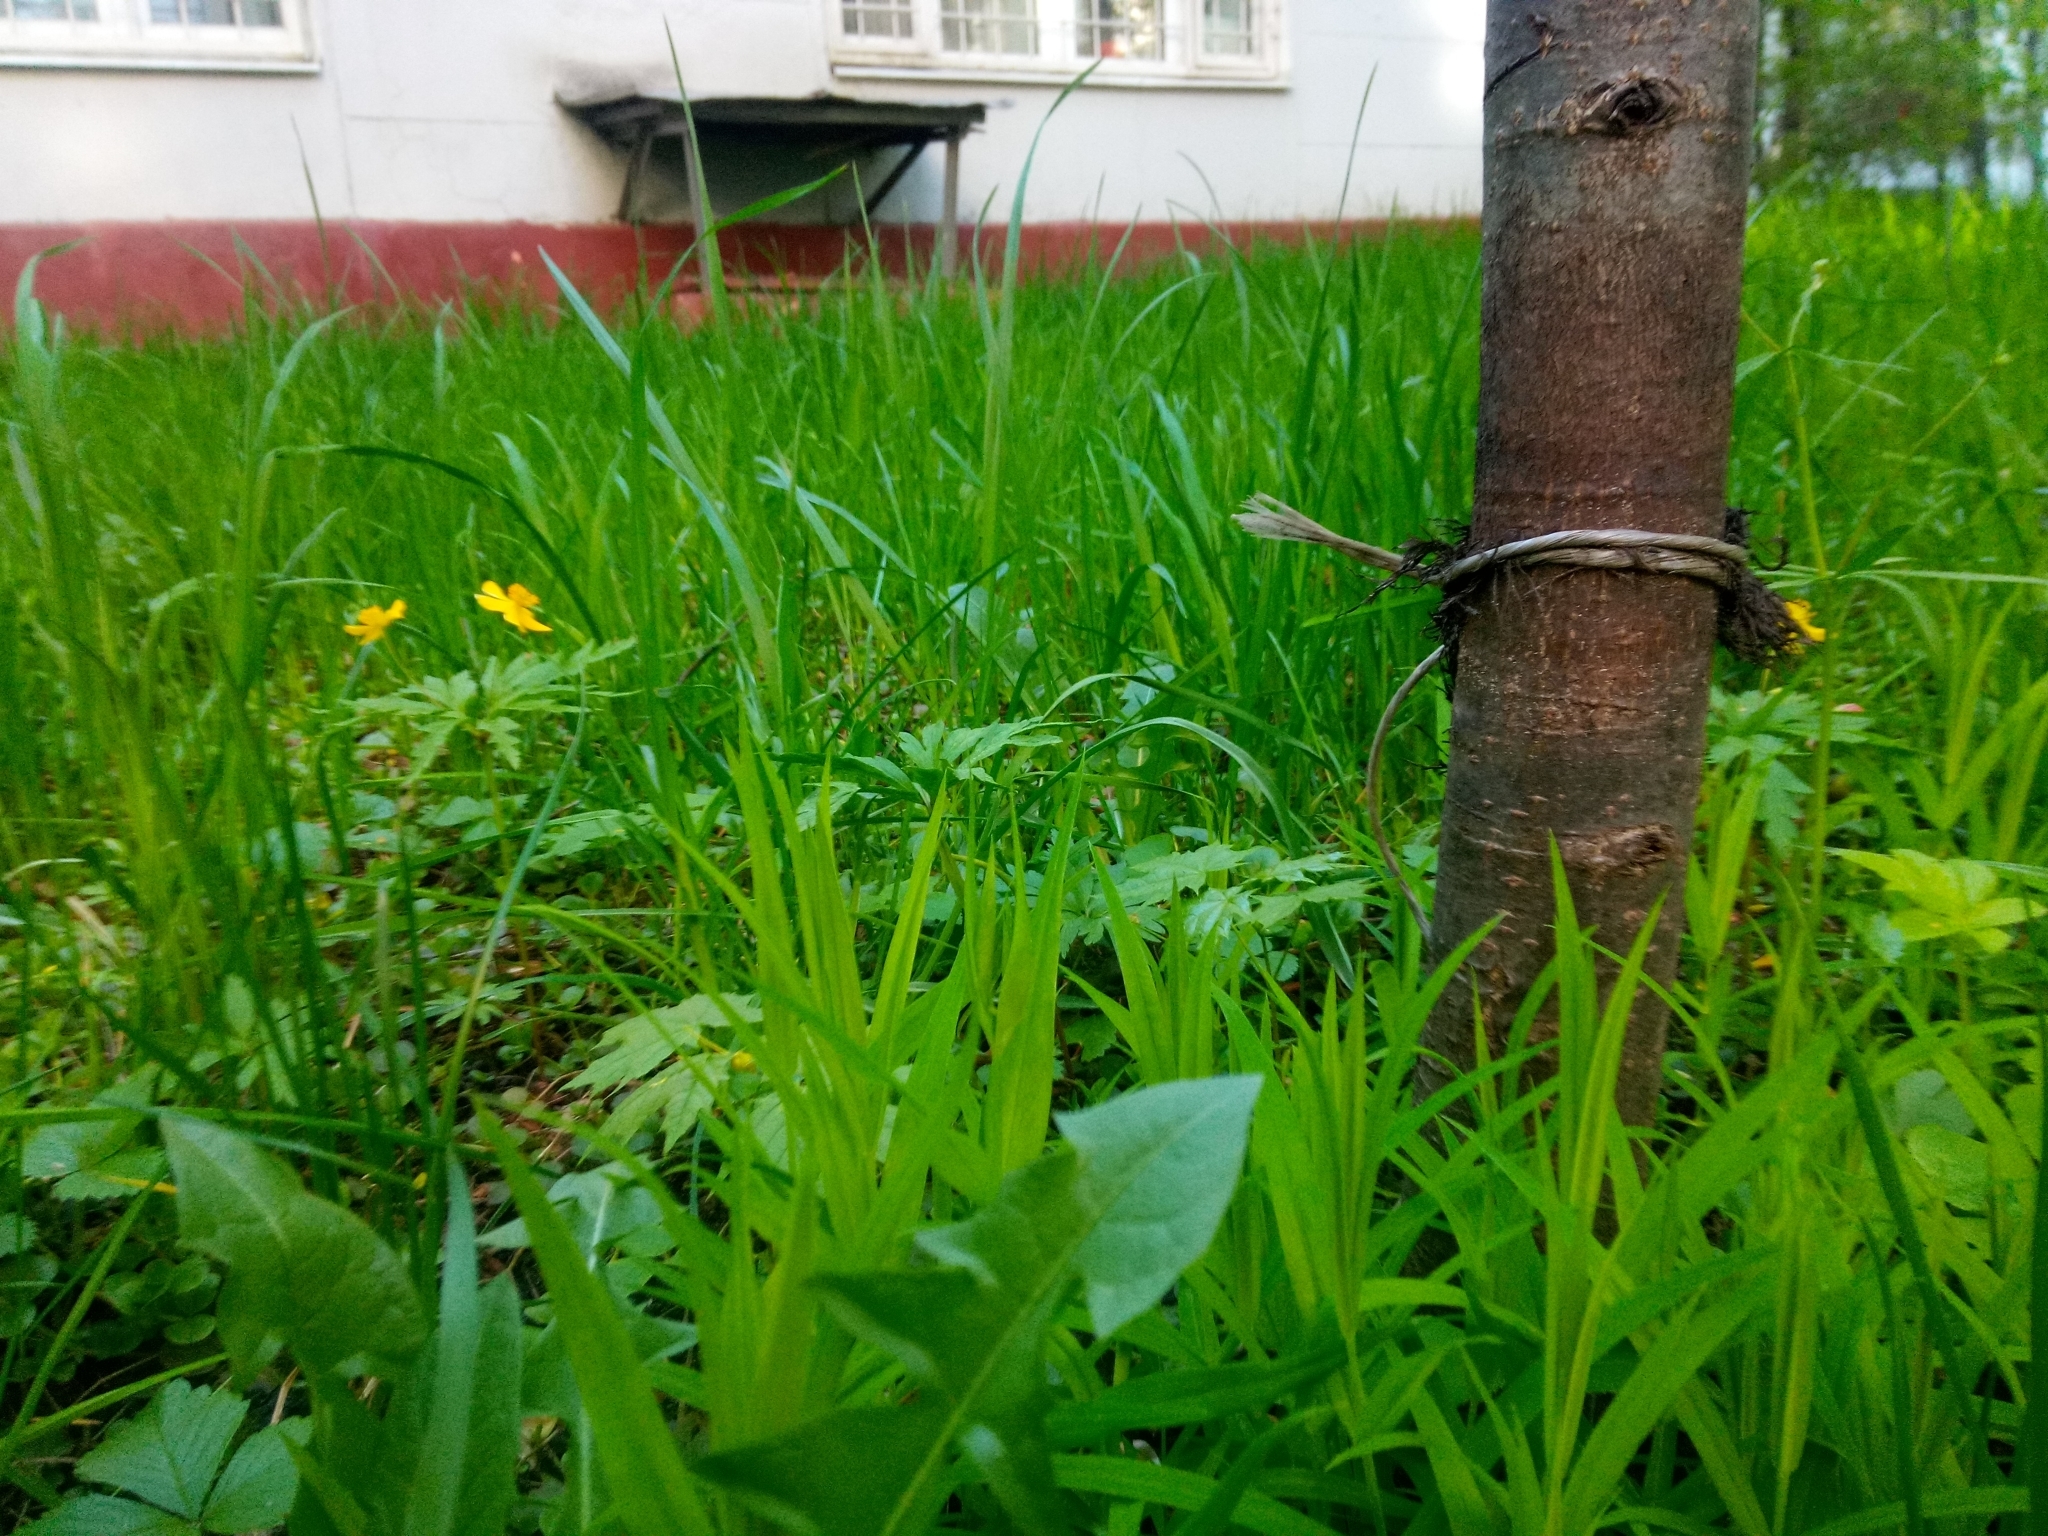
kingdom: Plantae
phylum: Tracheophyta
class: Magnoliopsida
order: Caryophyllales
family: Caryophyllaceae
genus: Rabelera
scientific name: Rabelera holostea
